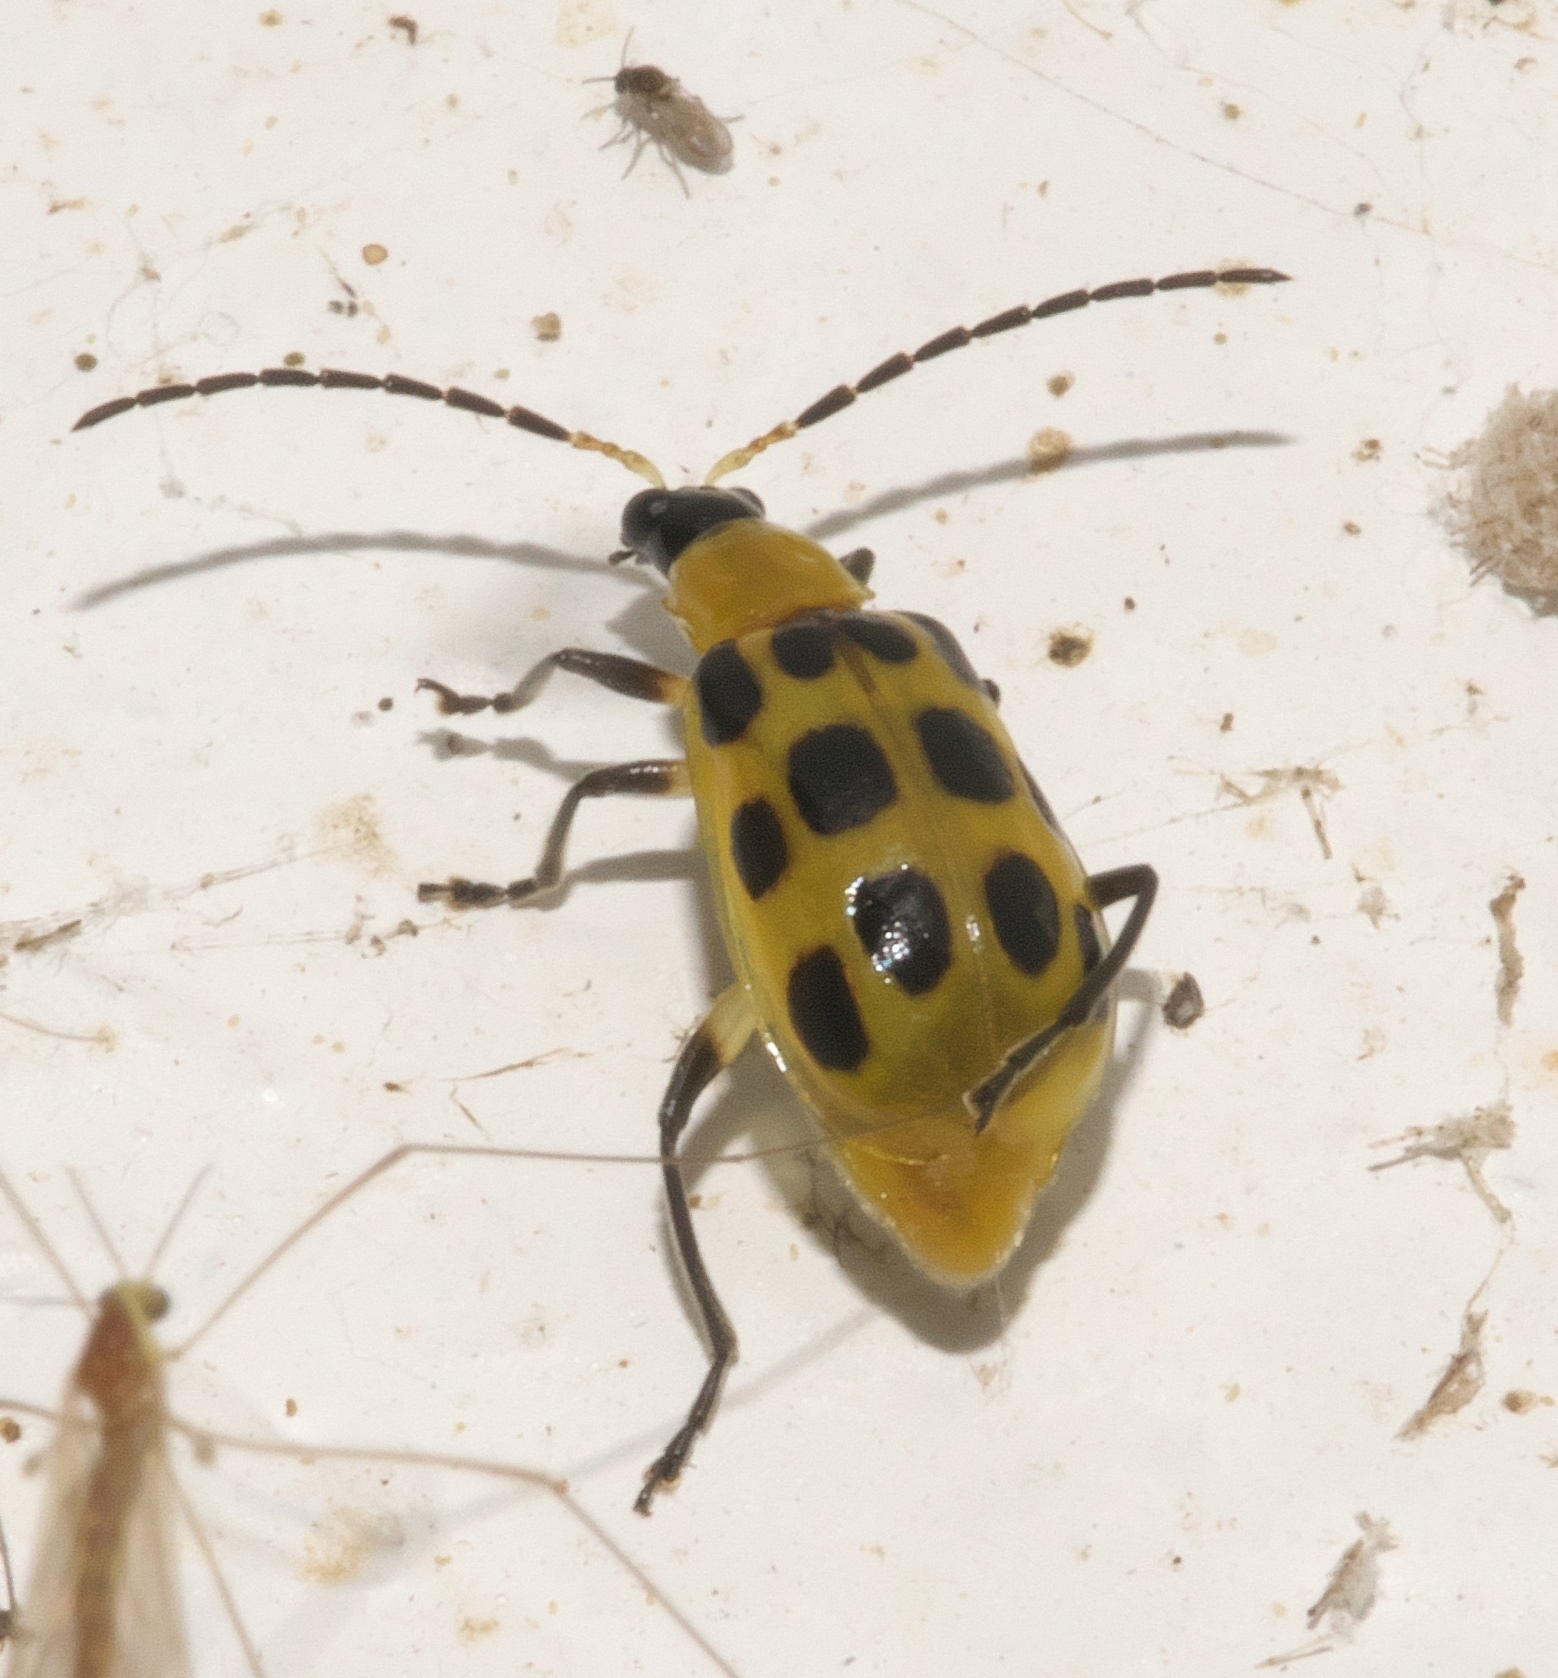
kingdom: Animalia
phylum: Arthropoda
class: Insecta
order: Coleoptera
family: Chrysomelidae
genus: Diabrotica
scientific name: Diabrotica undecimpunctata
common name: Spotted cucumber beetle
